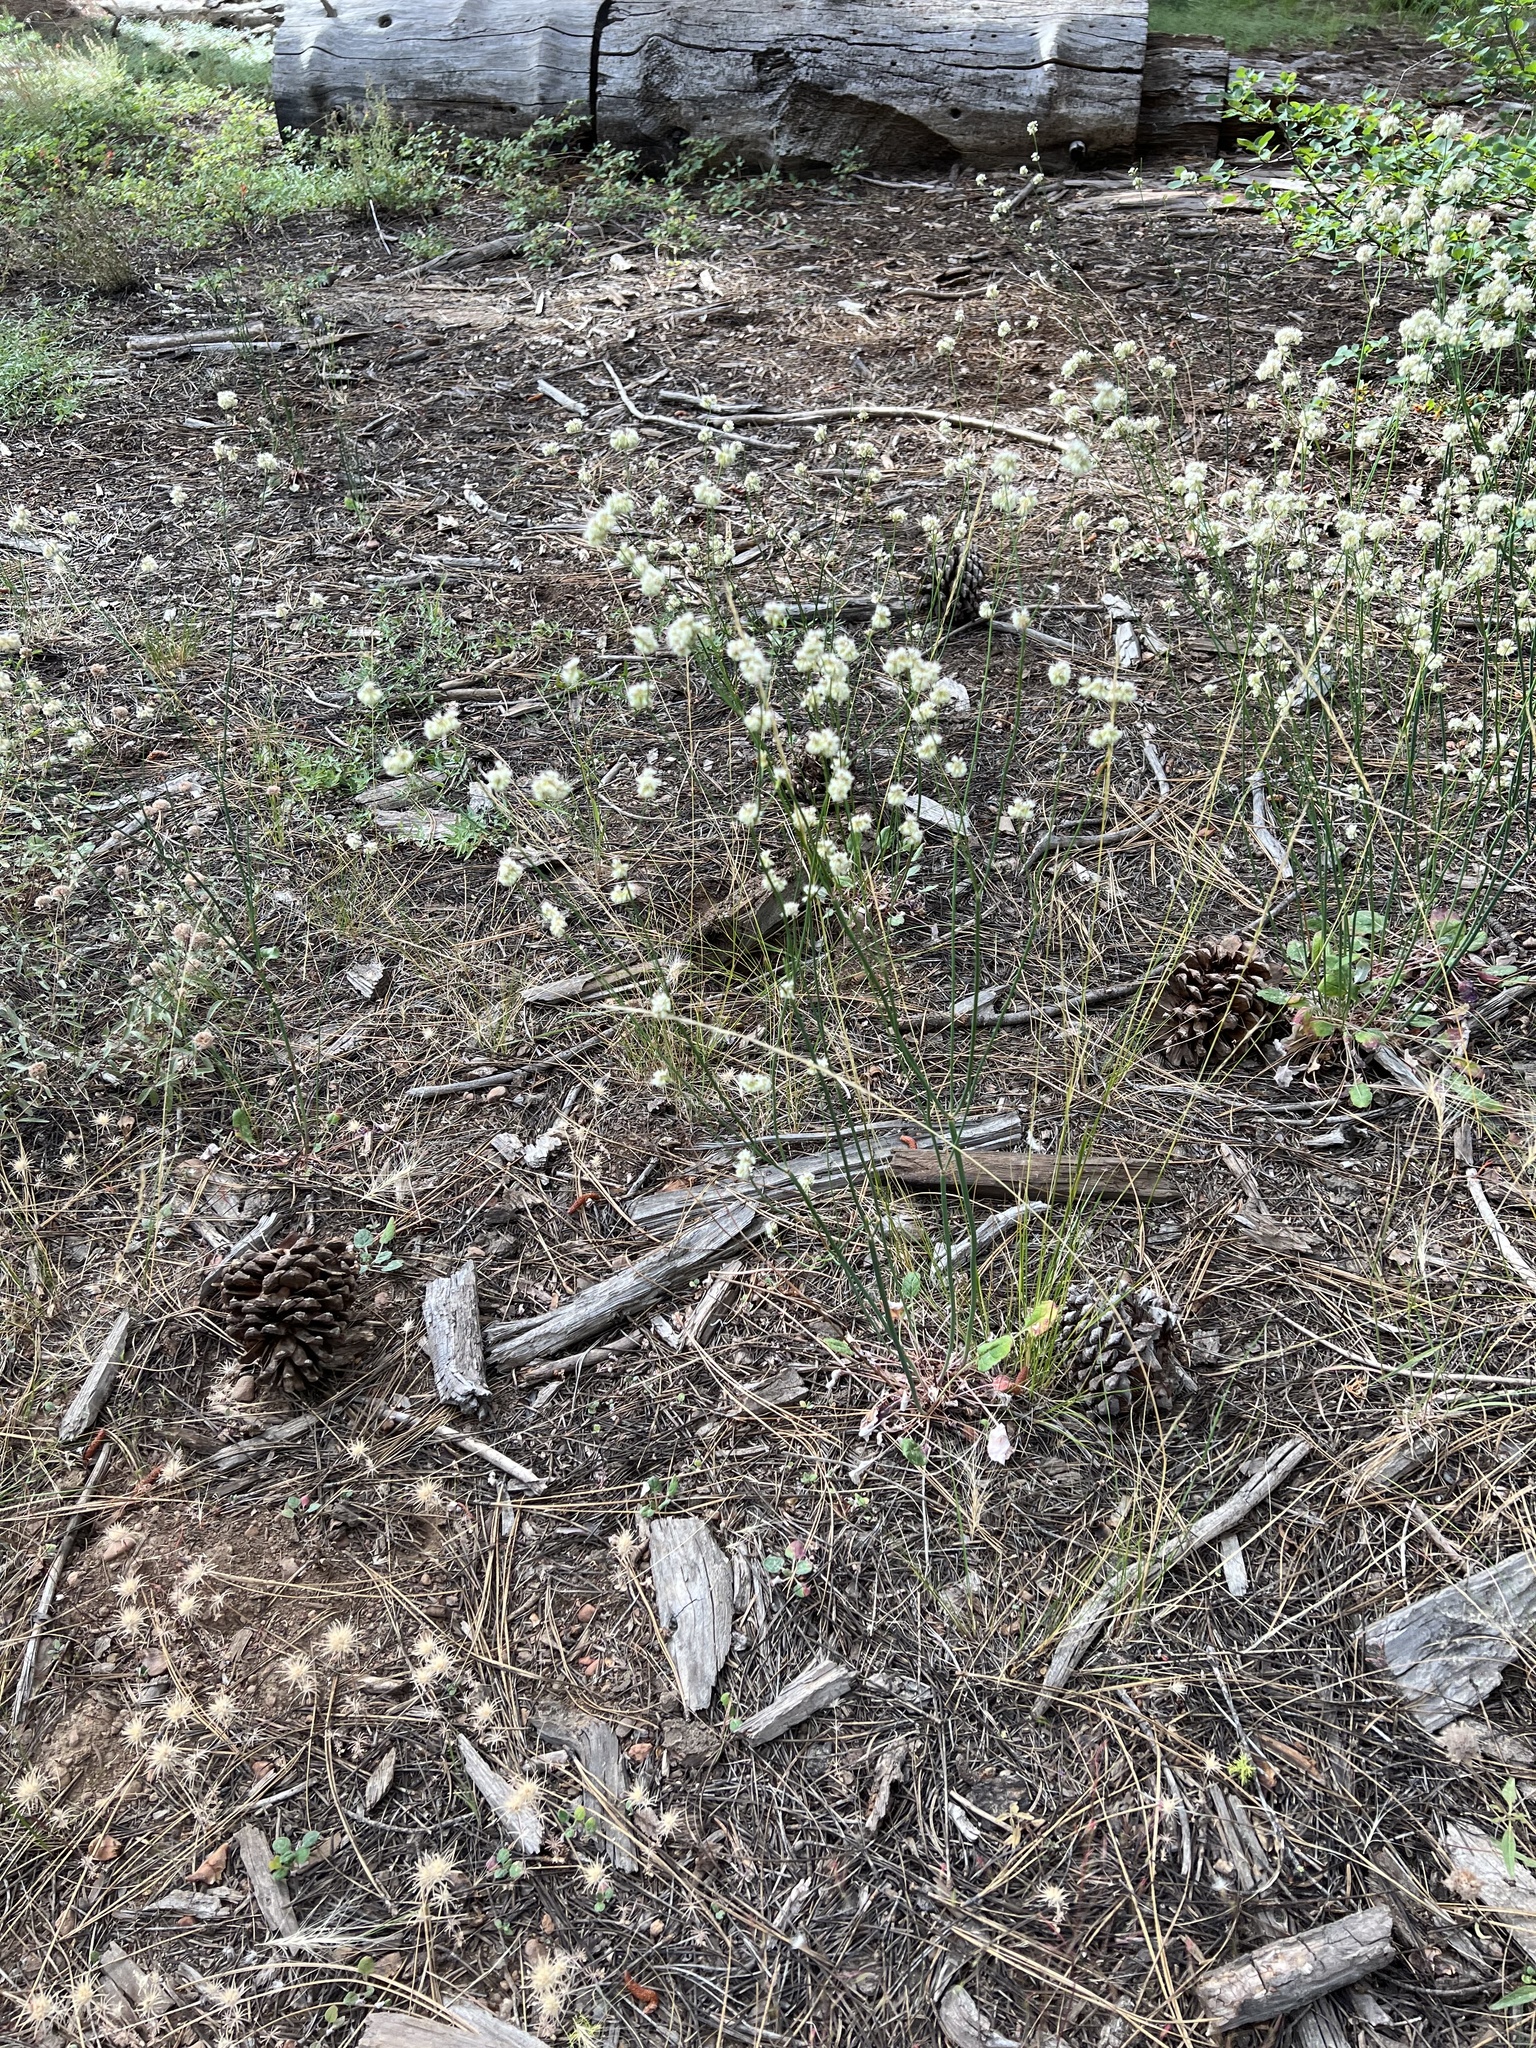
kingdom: Plantae
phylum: Tracheophyta
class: Magnoliopsida
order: Caryophyllales
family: Polygonaceae
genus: Eriogonum
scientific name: Eriogonum nudum
